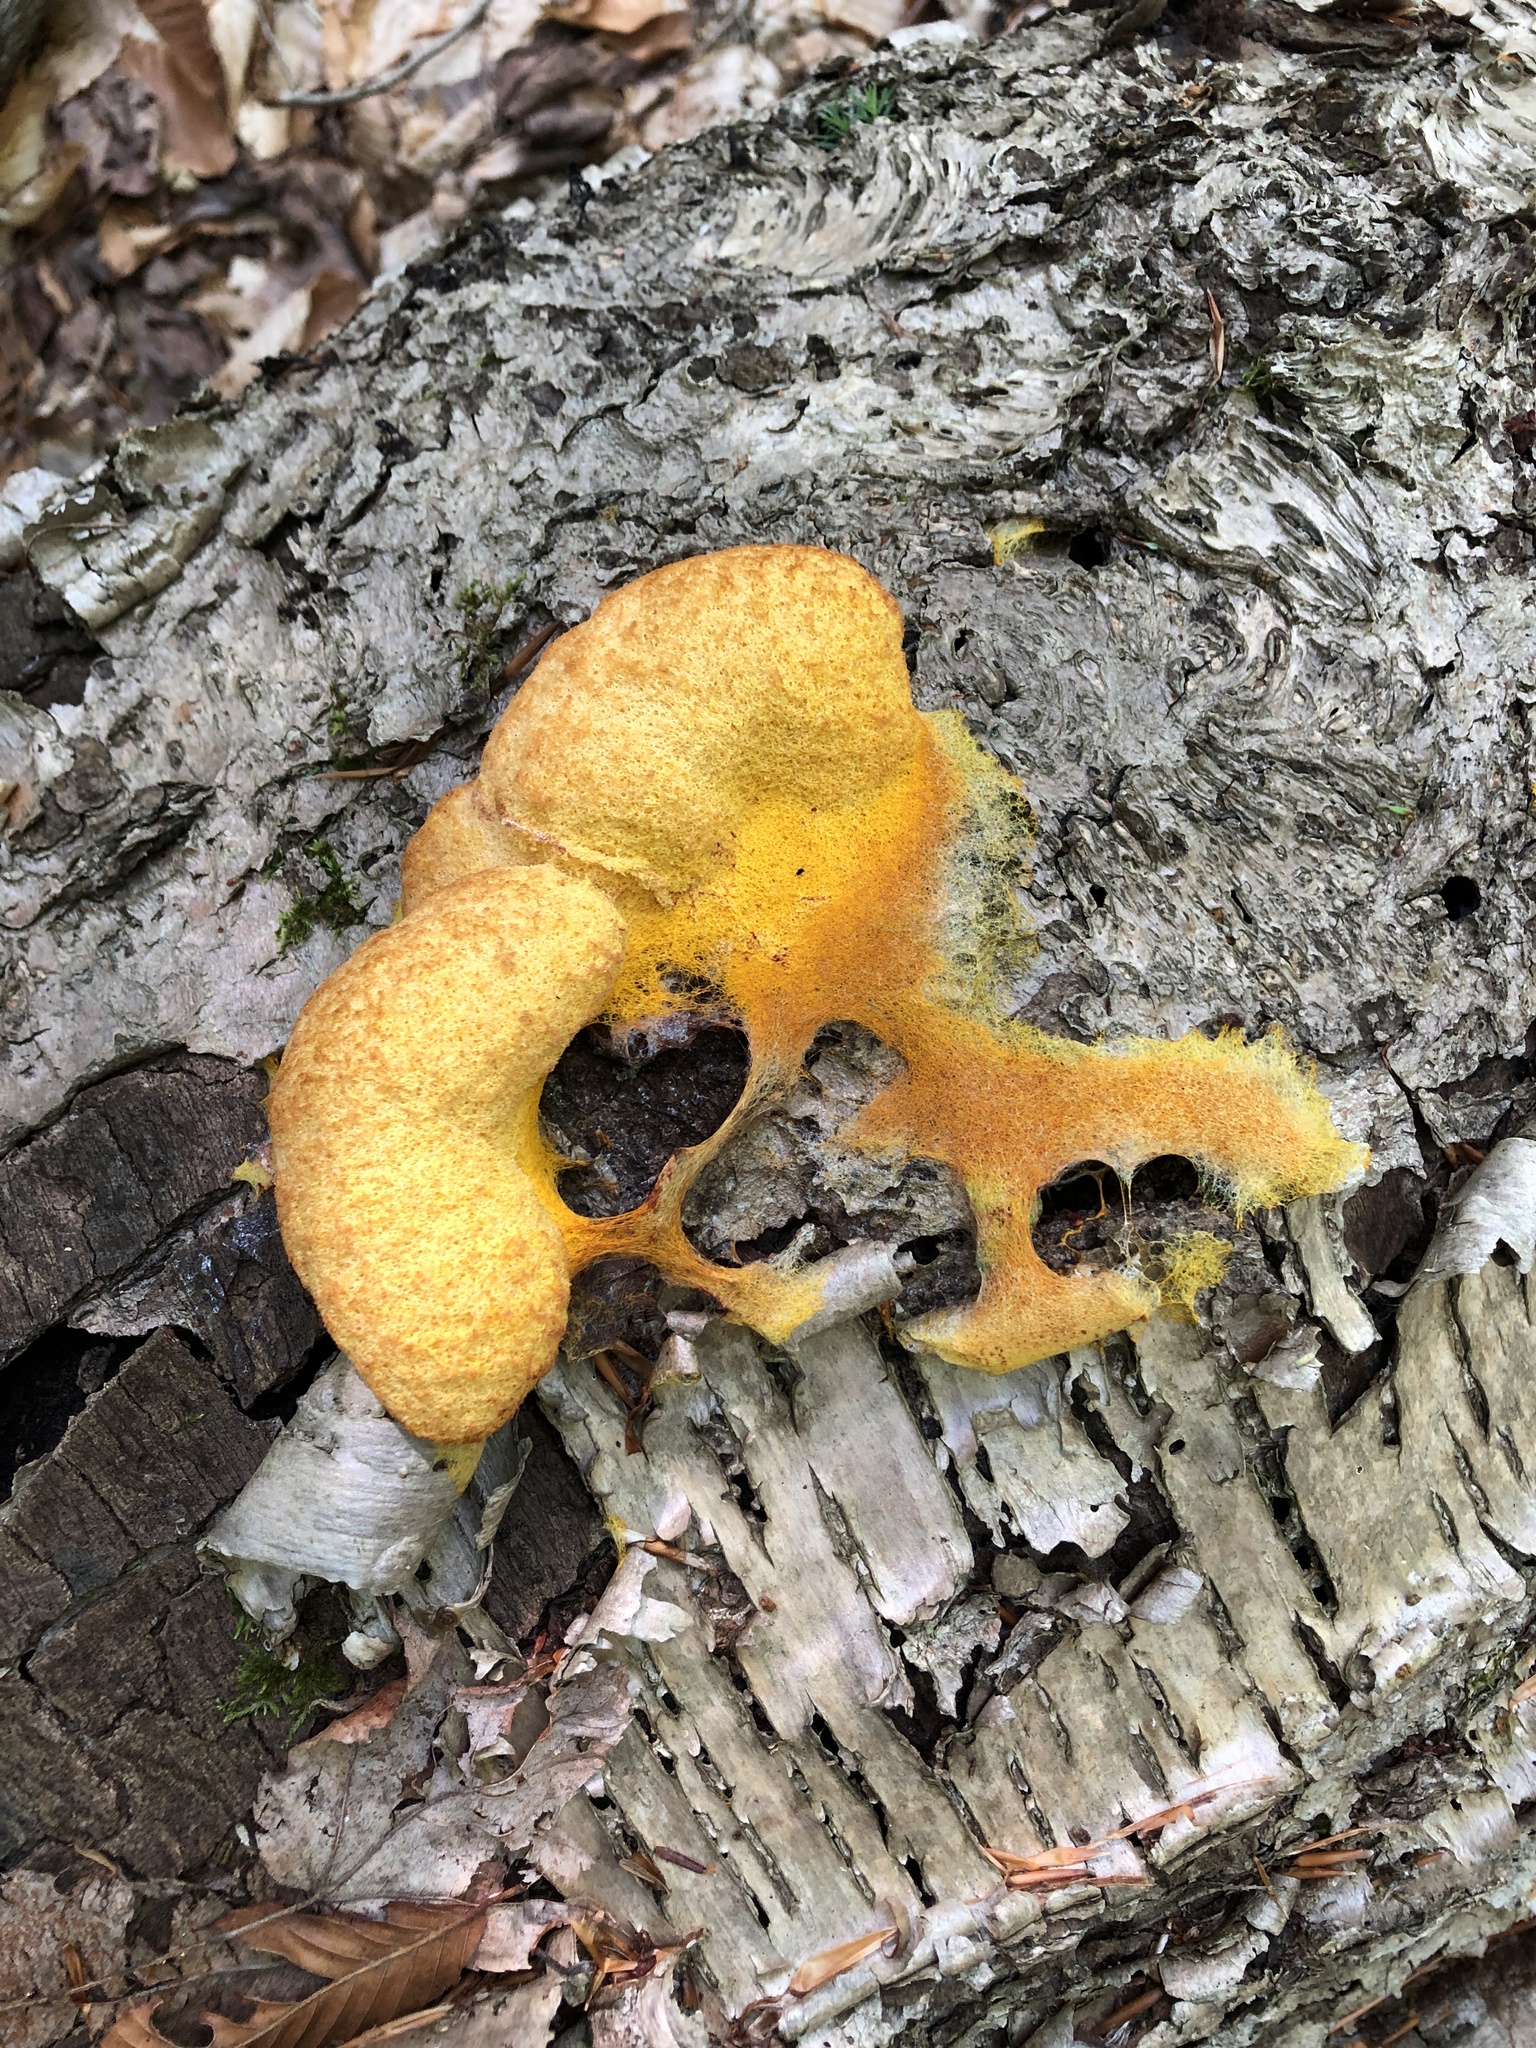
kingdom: Protozoa
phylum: Mycetozoa
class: Myxomycetes
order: Physarales
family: Physaraceae
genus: Fuligo
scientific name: Fuligo septica
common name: Dog vomit slime mold
